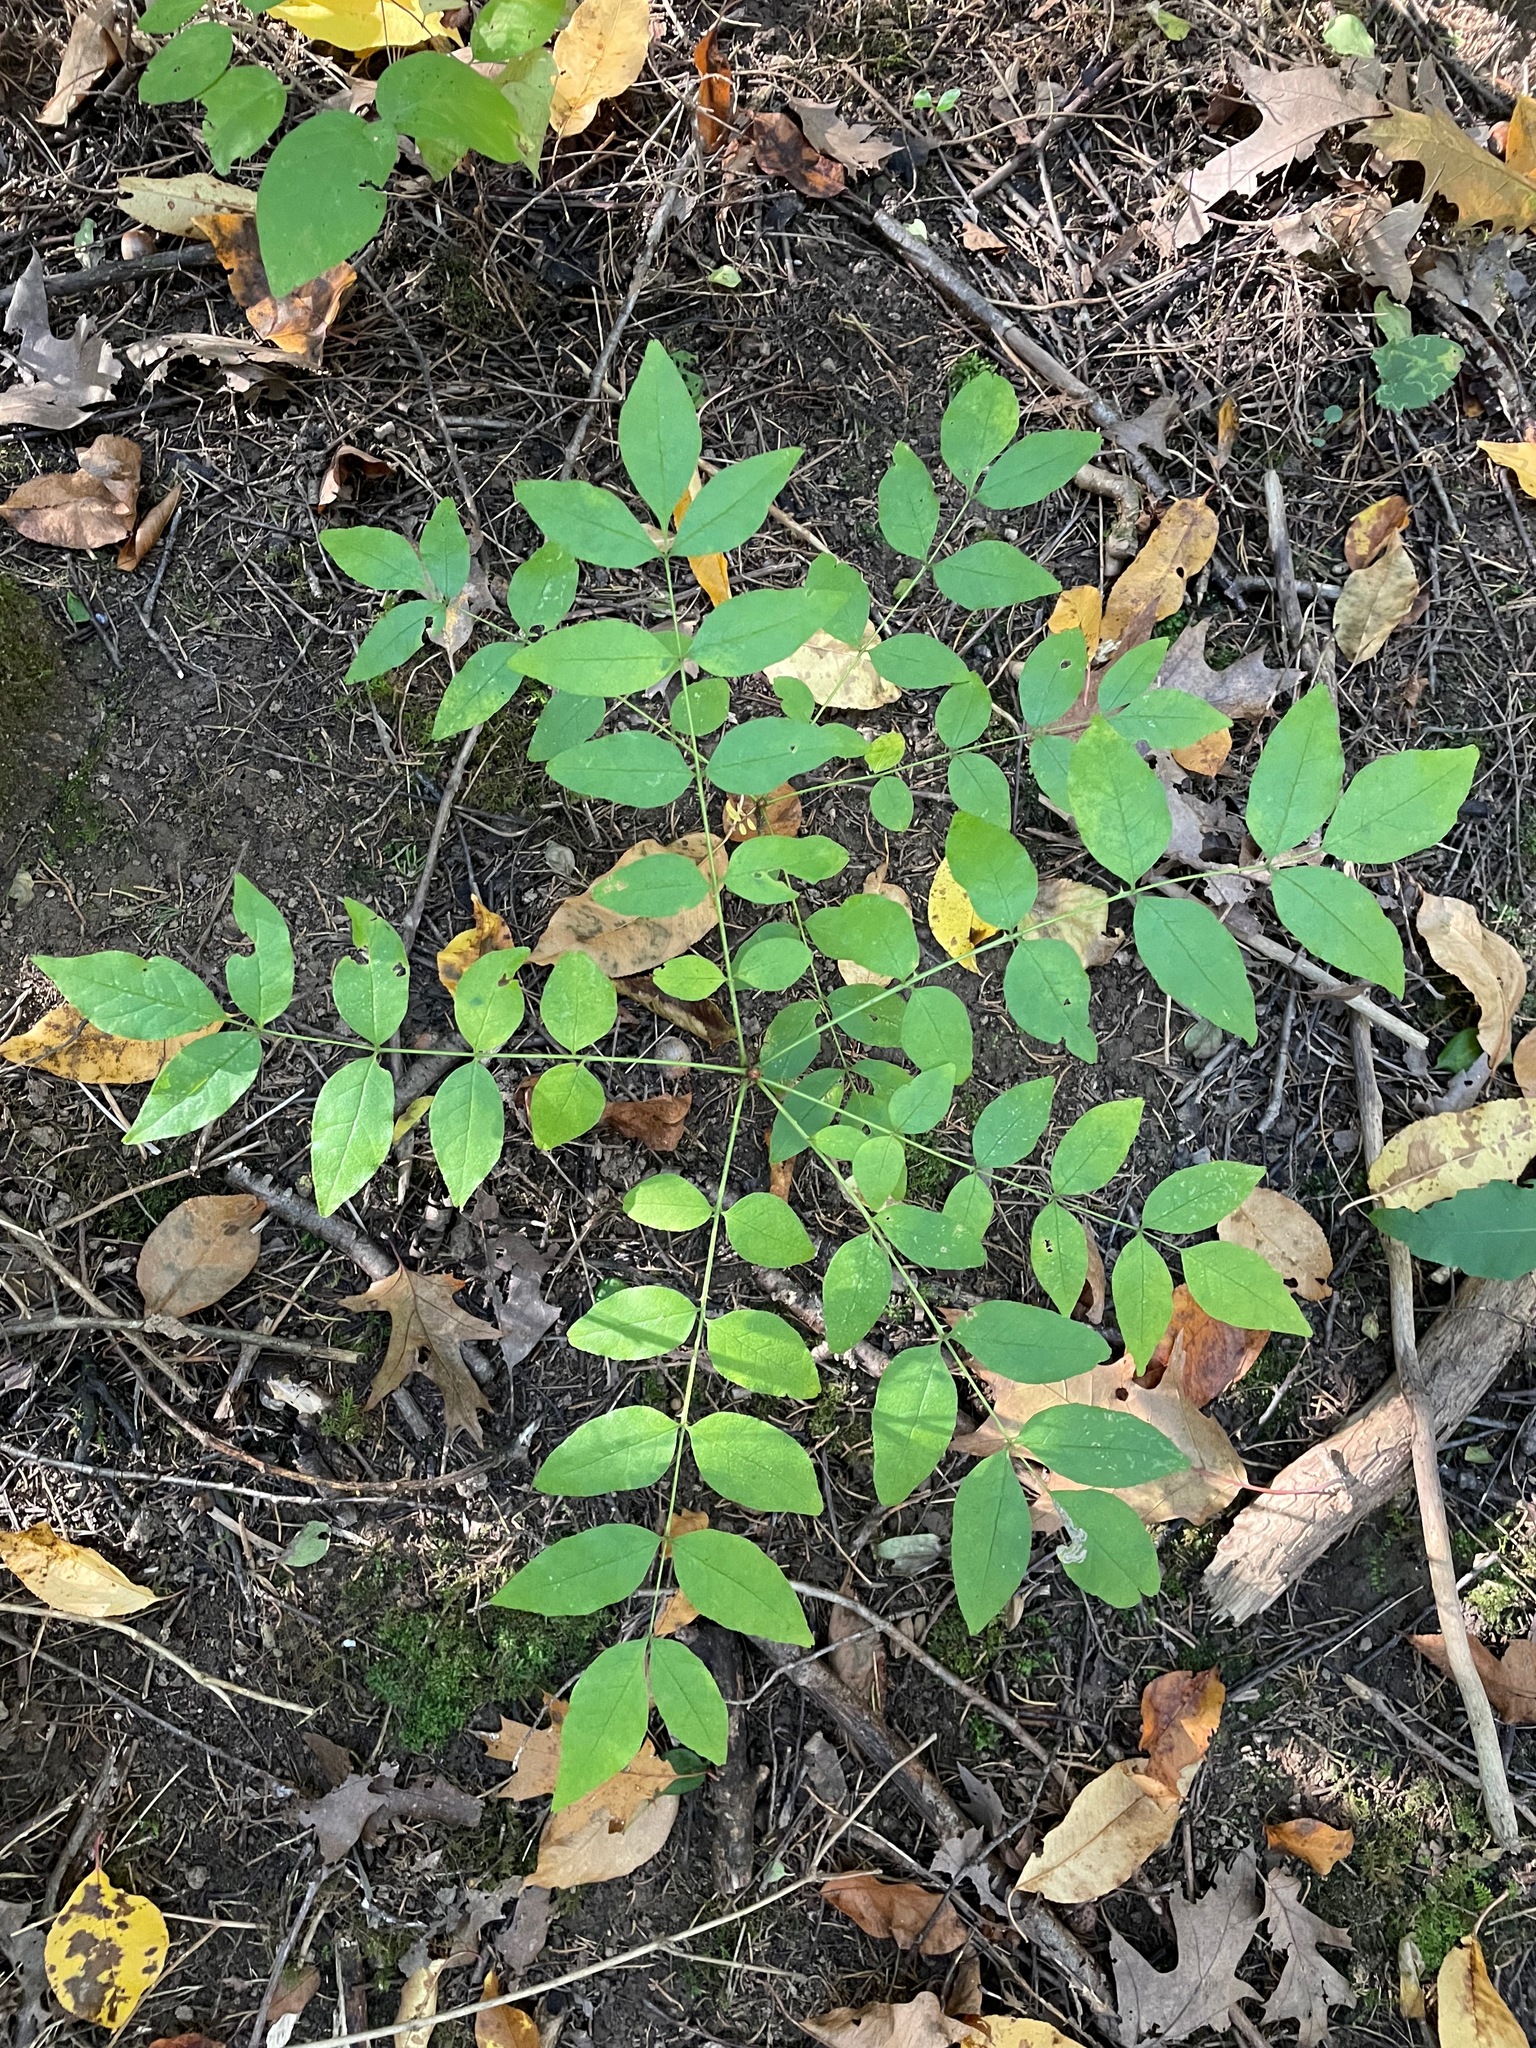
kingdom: Plantae
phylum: Tracheophyta
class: Magnoliopsida
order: Sapindales
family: Rutaceae
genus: Zanthoxylum
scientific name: Zanthoxylum americanum
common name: Northern prickly-ash
